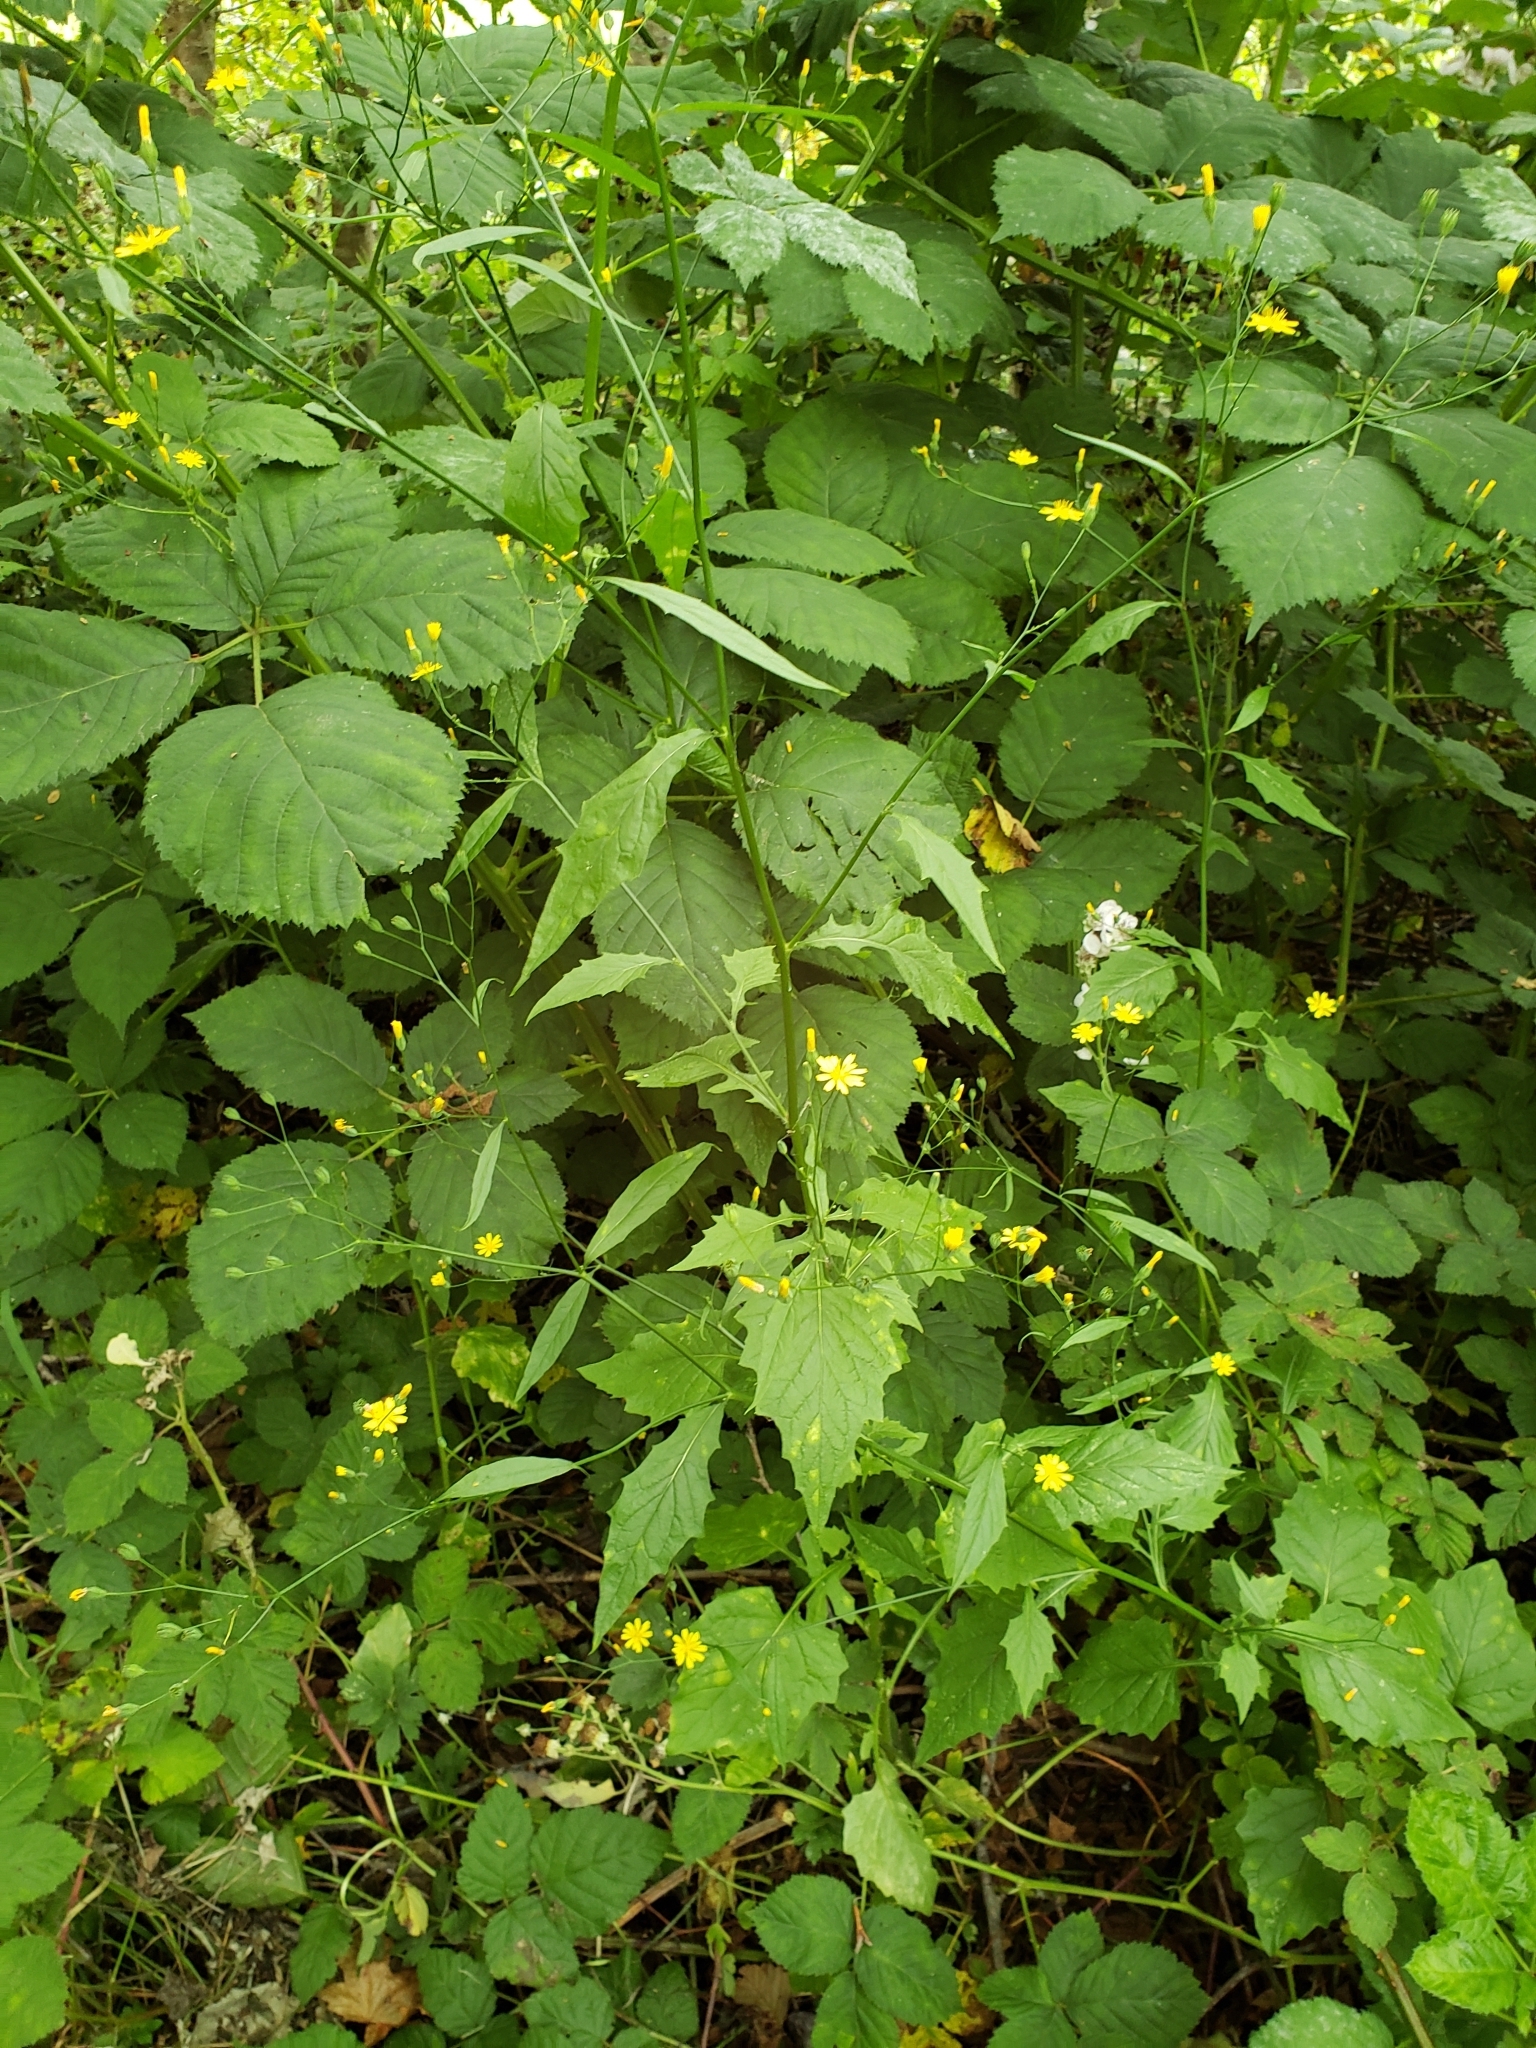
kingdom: Plantae
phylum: Tracheophyta
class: Magnoliopsida
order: Asterales
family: Asteraceae
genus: Lapsana
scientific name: Lapsana communis
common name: Nipplewort
